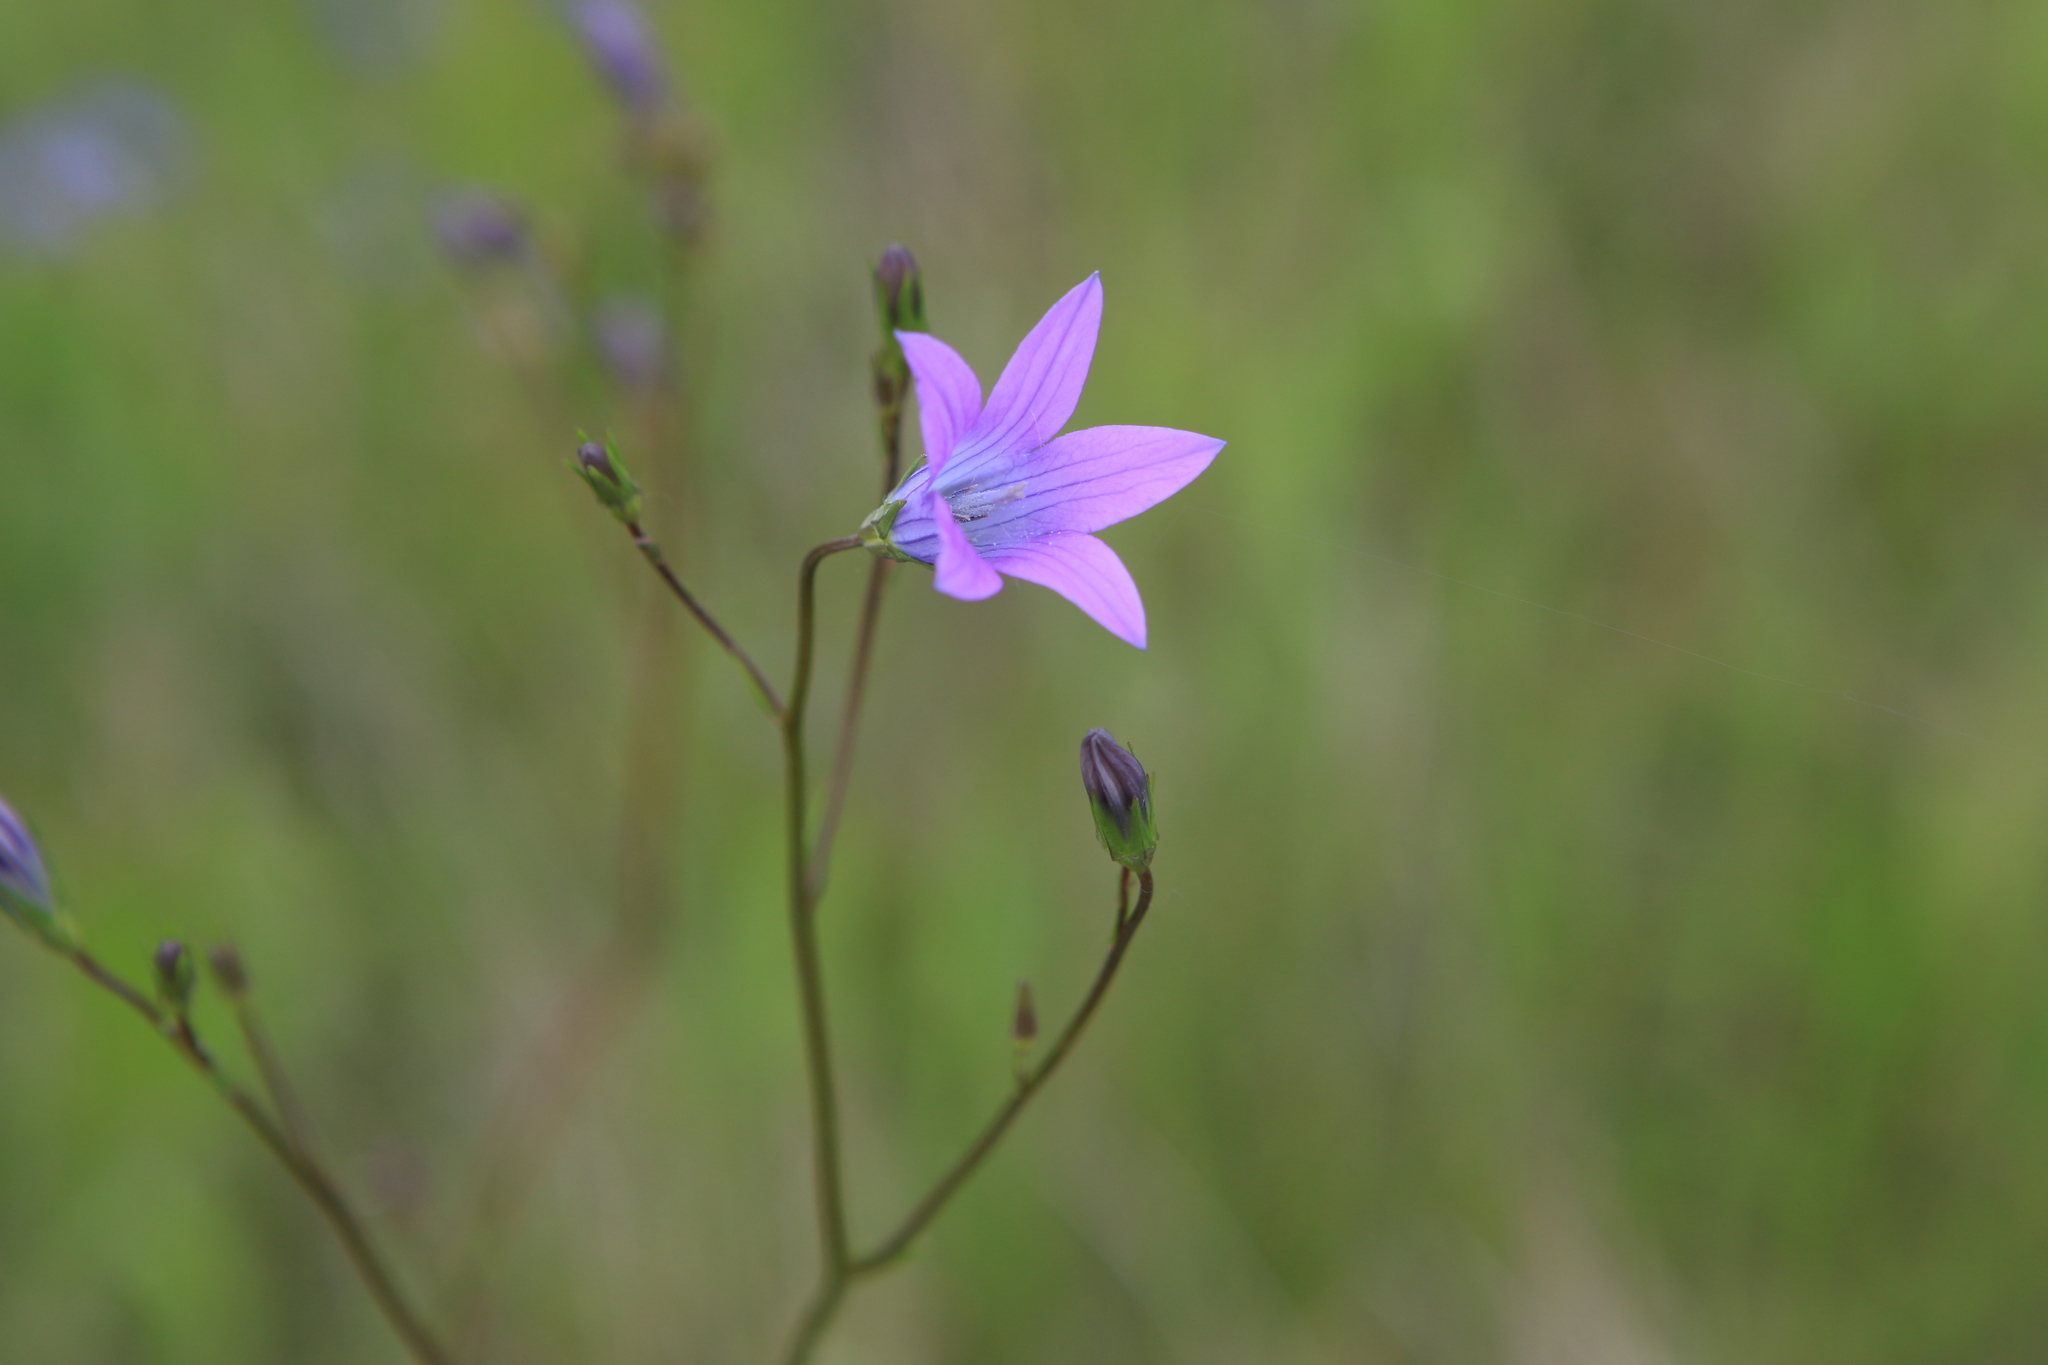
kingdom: Plantae
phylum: Tracheophyta
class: Magnoliopsida
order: Asterales
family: Campanulaceae
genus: Campanula
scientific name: Campanula patula
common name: Spreading bellflower
